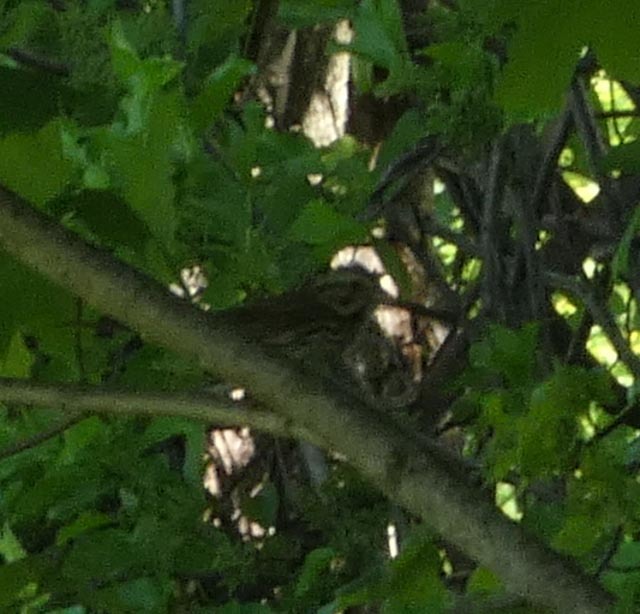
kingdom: Animalia
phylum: Chordata
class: Aves
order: Passeriformes
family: Passerellidae
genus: Melospiza
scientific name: Melospiza melodia
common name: Song sparrow
